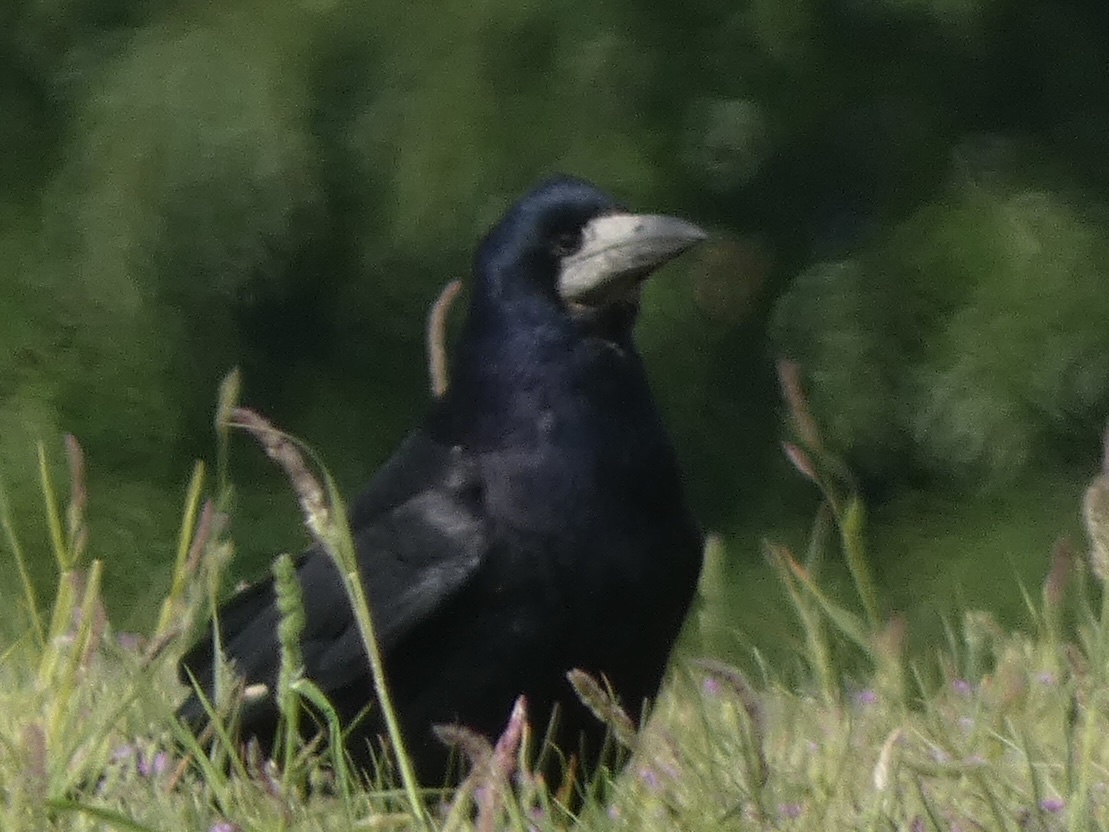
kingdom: Animalia
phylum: Chordata
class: Aves
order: Passeriformes
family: Corvidae
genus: Corvus
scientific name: Corvus frugilegus
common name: Rook
